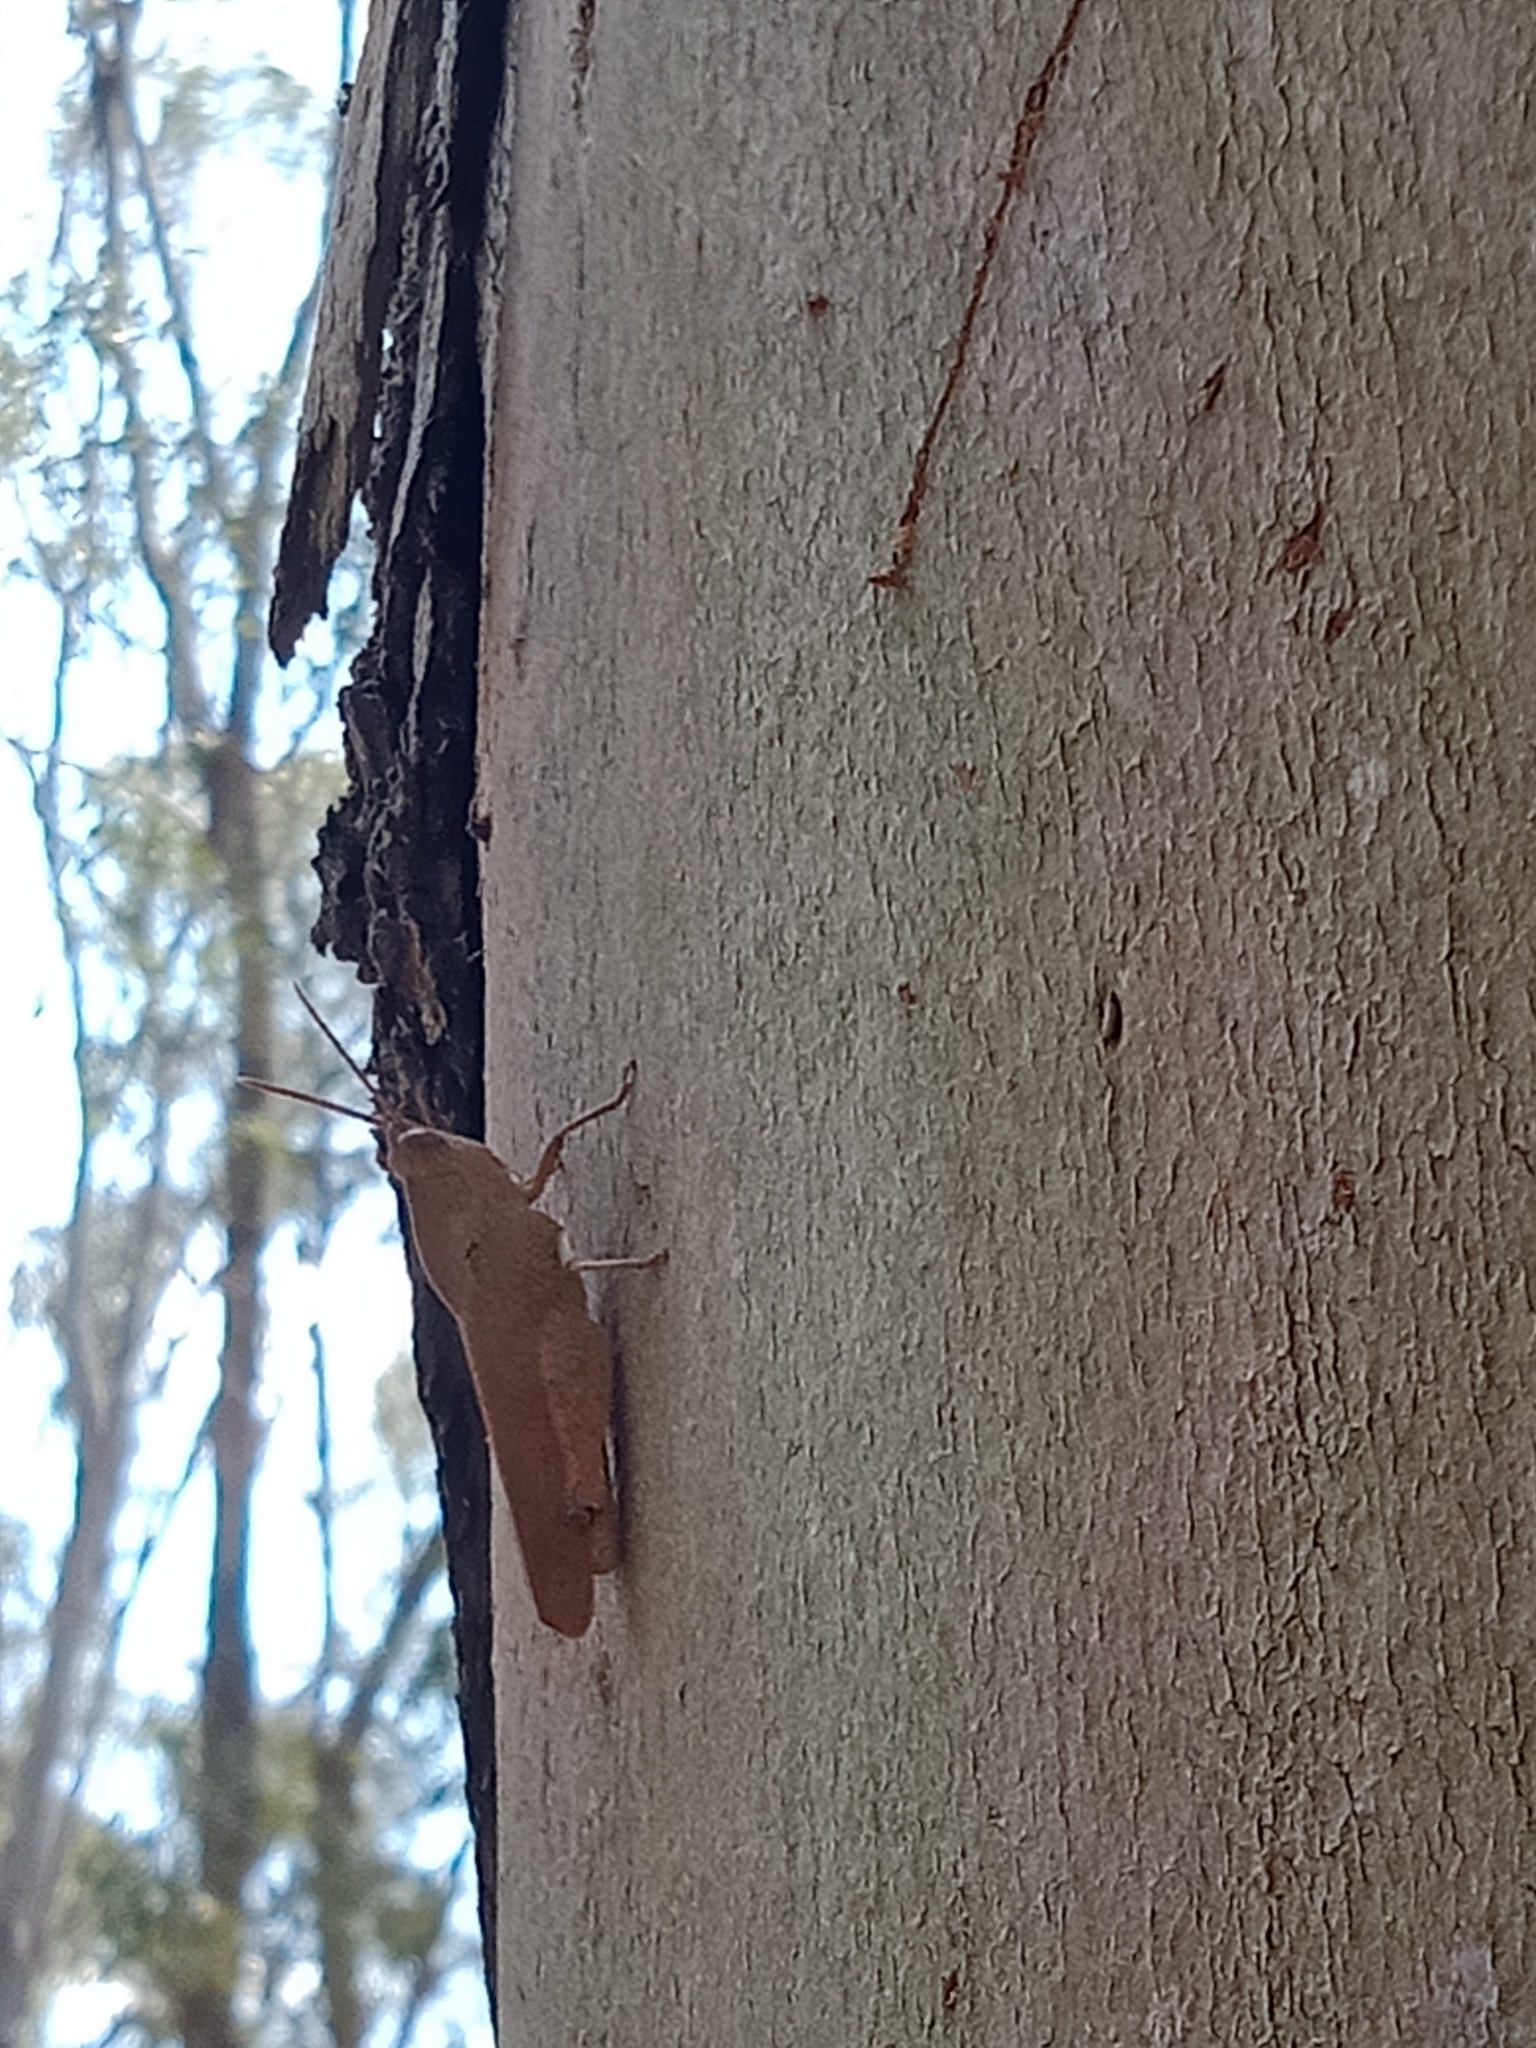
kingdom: Animalia
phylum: Arthropoda
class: Insecta
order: Orthoptera
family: Acrididae
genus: Goniaea
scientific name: Goniaea australasiae
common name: Gumleaf grasshopper
